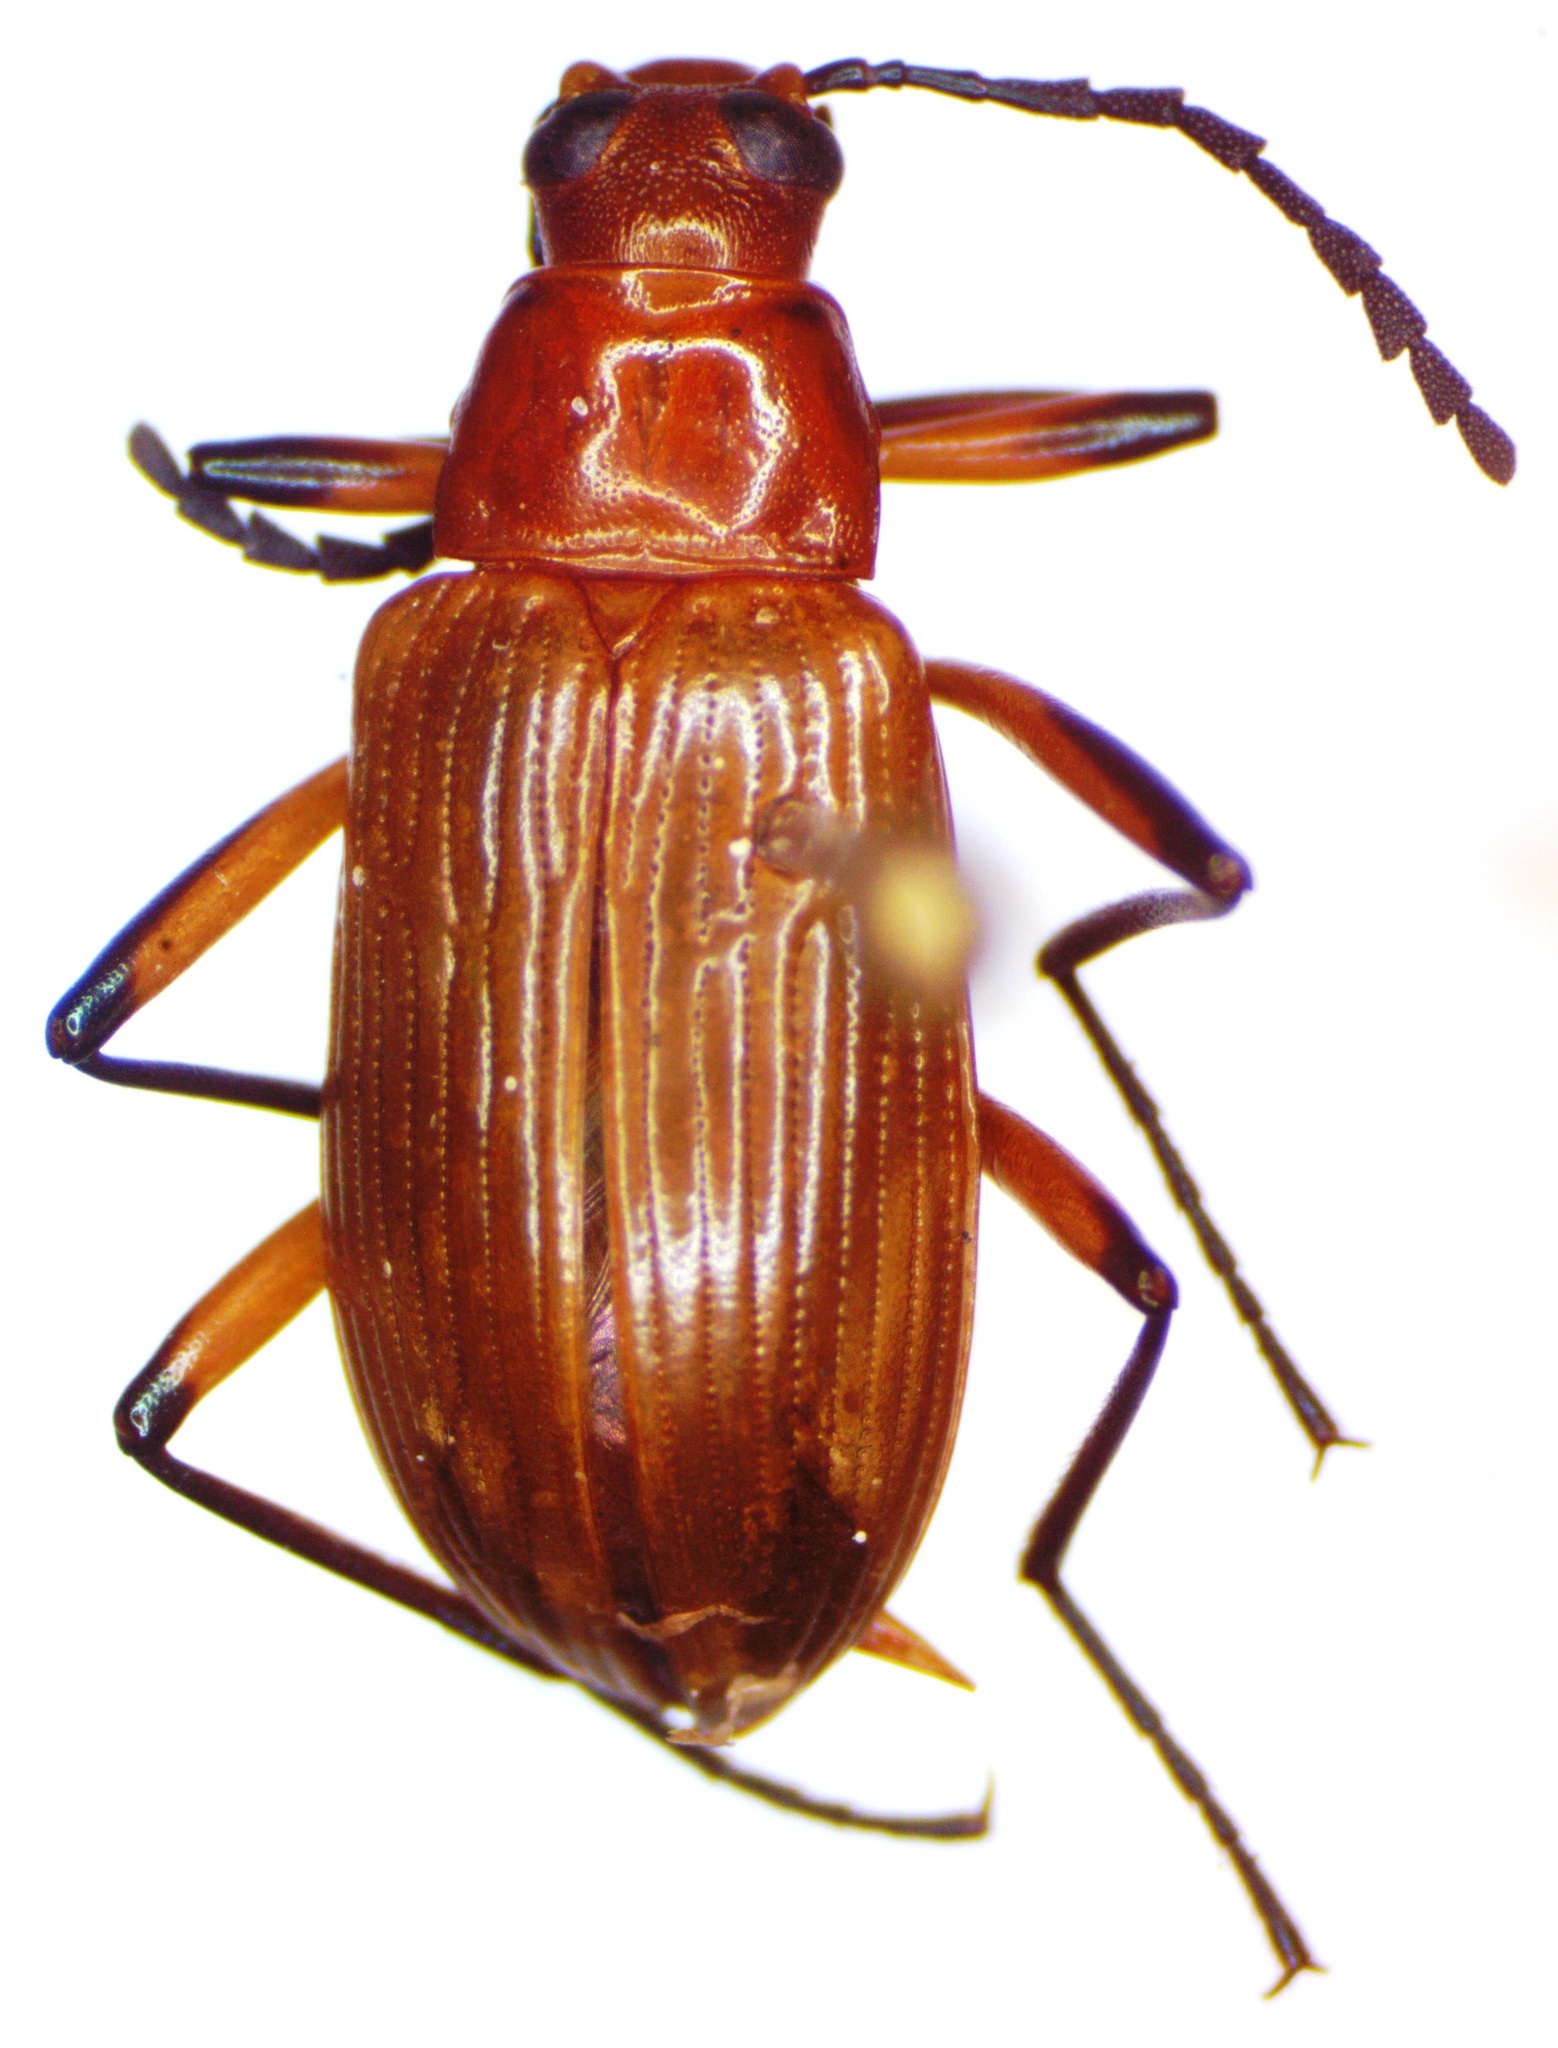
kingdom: Animalia
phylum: Arthropoda
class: Insecta
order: Coleoptera
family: Tenebrionidae
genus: Poecilesthus
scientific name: Poecilesthus variipes
